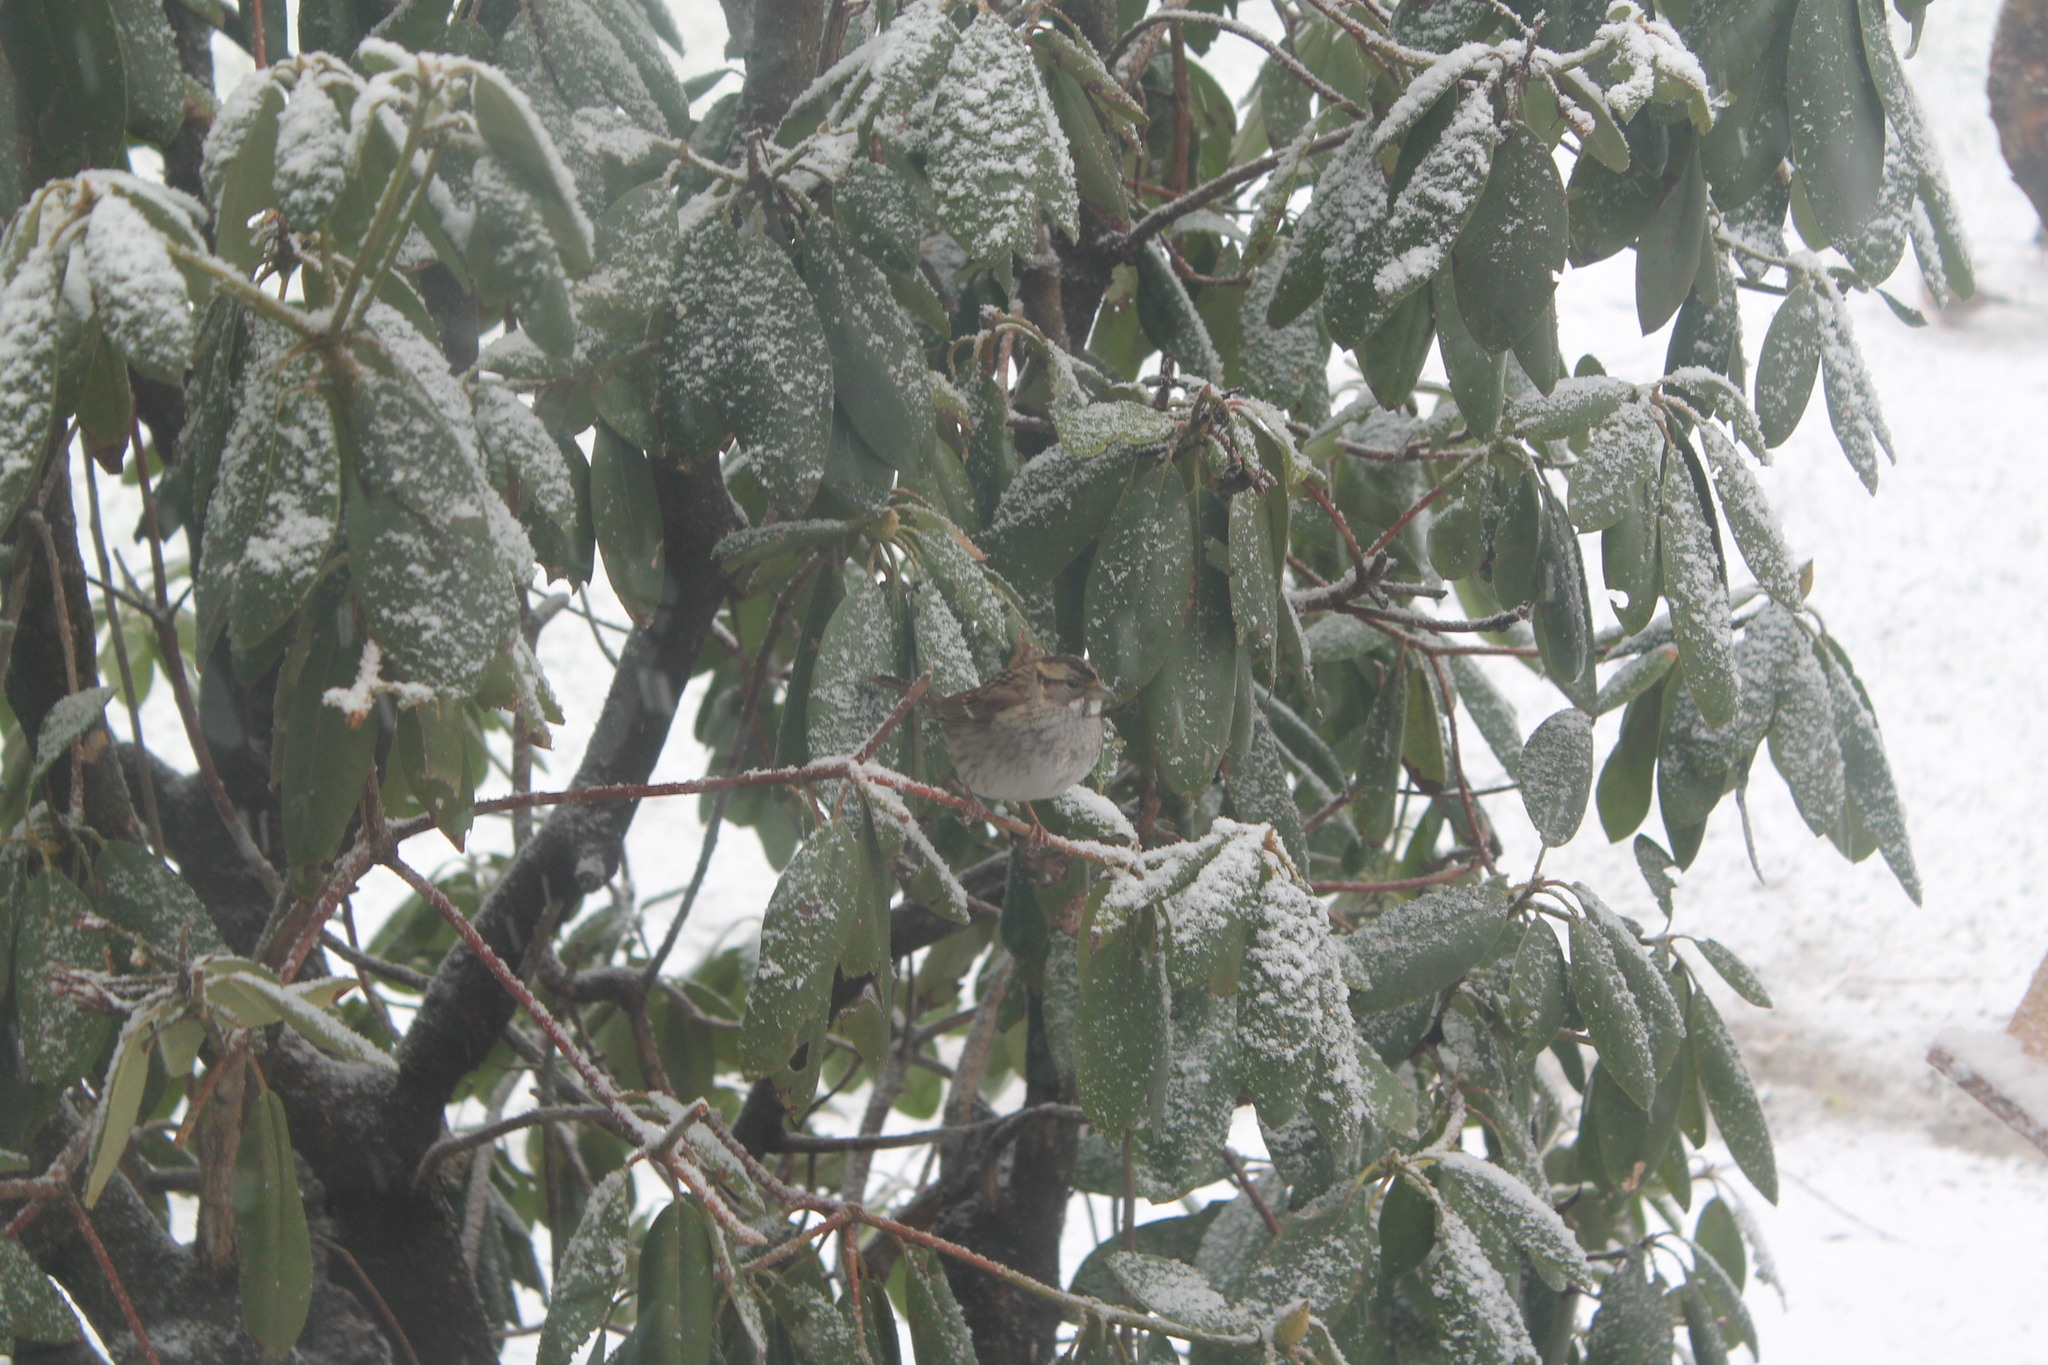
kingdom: Animalia
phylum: Chordata
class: Aves
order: Passeriformes
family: Passerellidae
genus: Zonotrichia
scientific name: Zonotrichia albicollis
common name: White-throated sparrow
